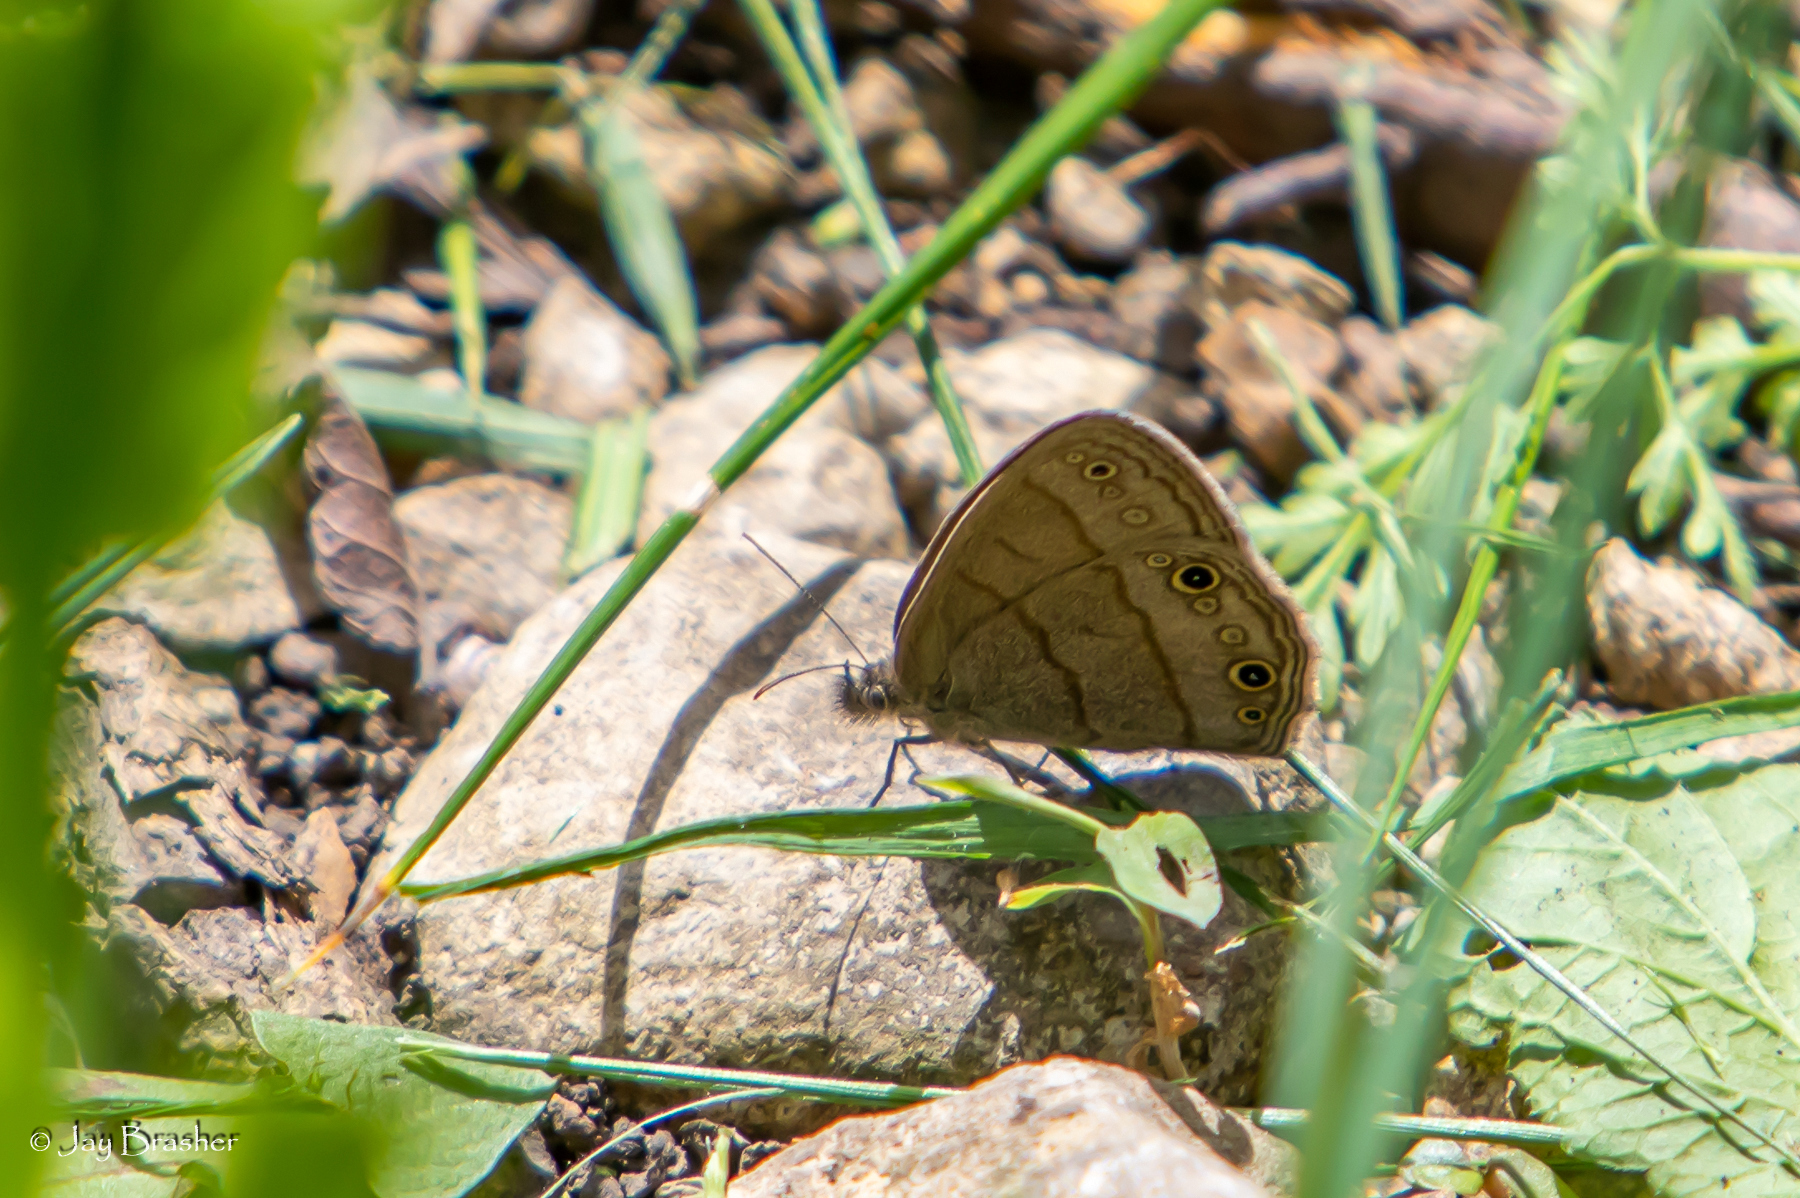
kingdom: Animalia
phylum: Arthropoda
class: Insecta
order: Lepidoptera
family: Nymphalidae
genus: Hermeuptychia
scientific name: Hermeuptychia hermes
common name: Hermes satyr
